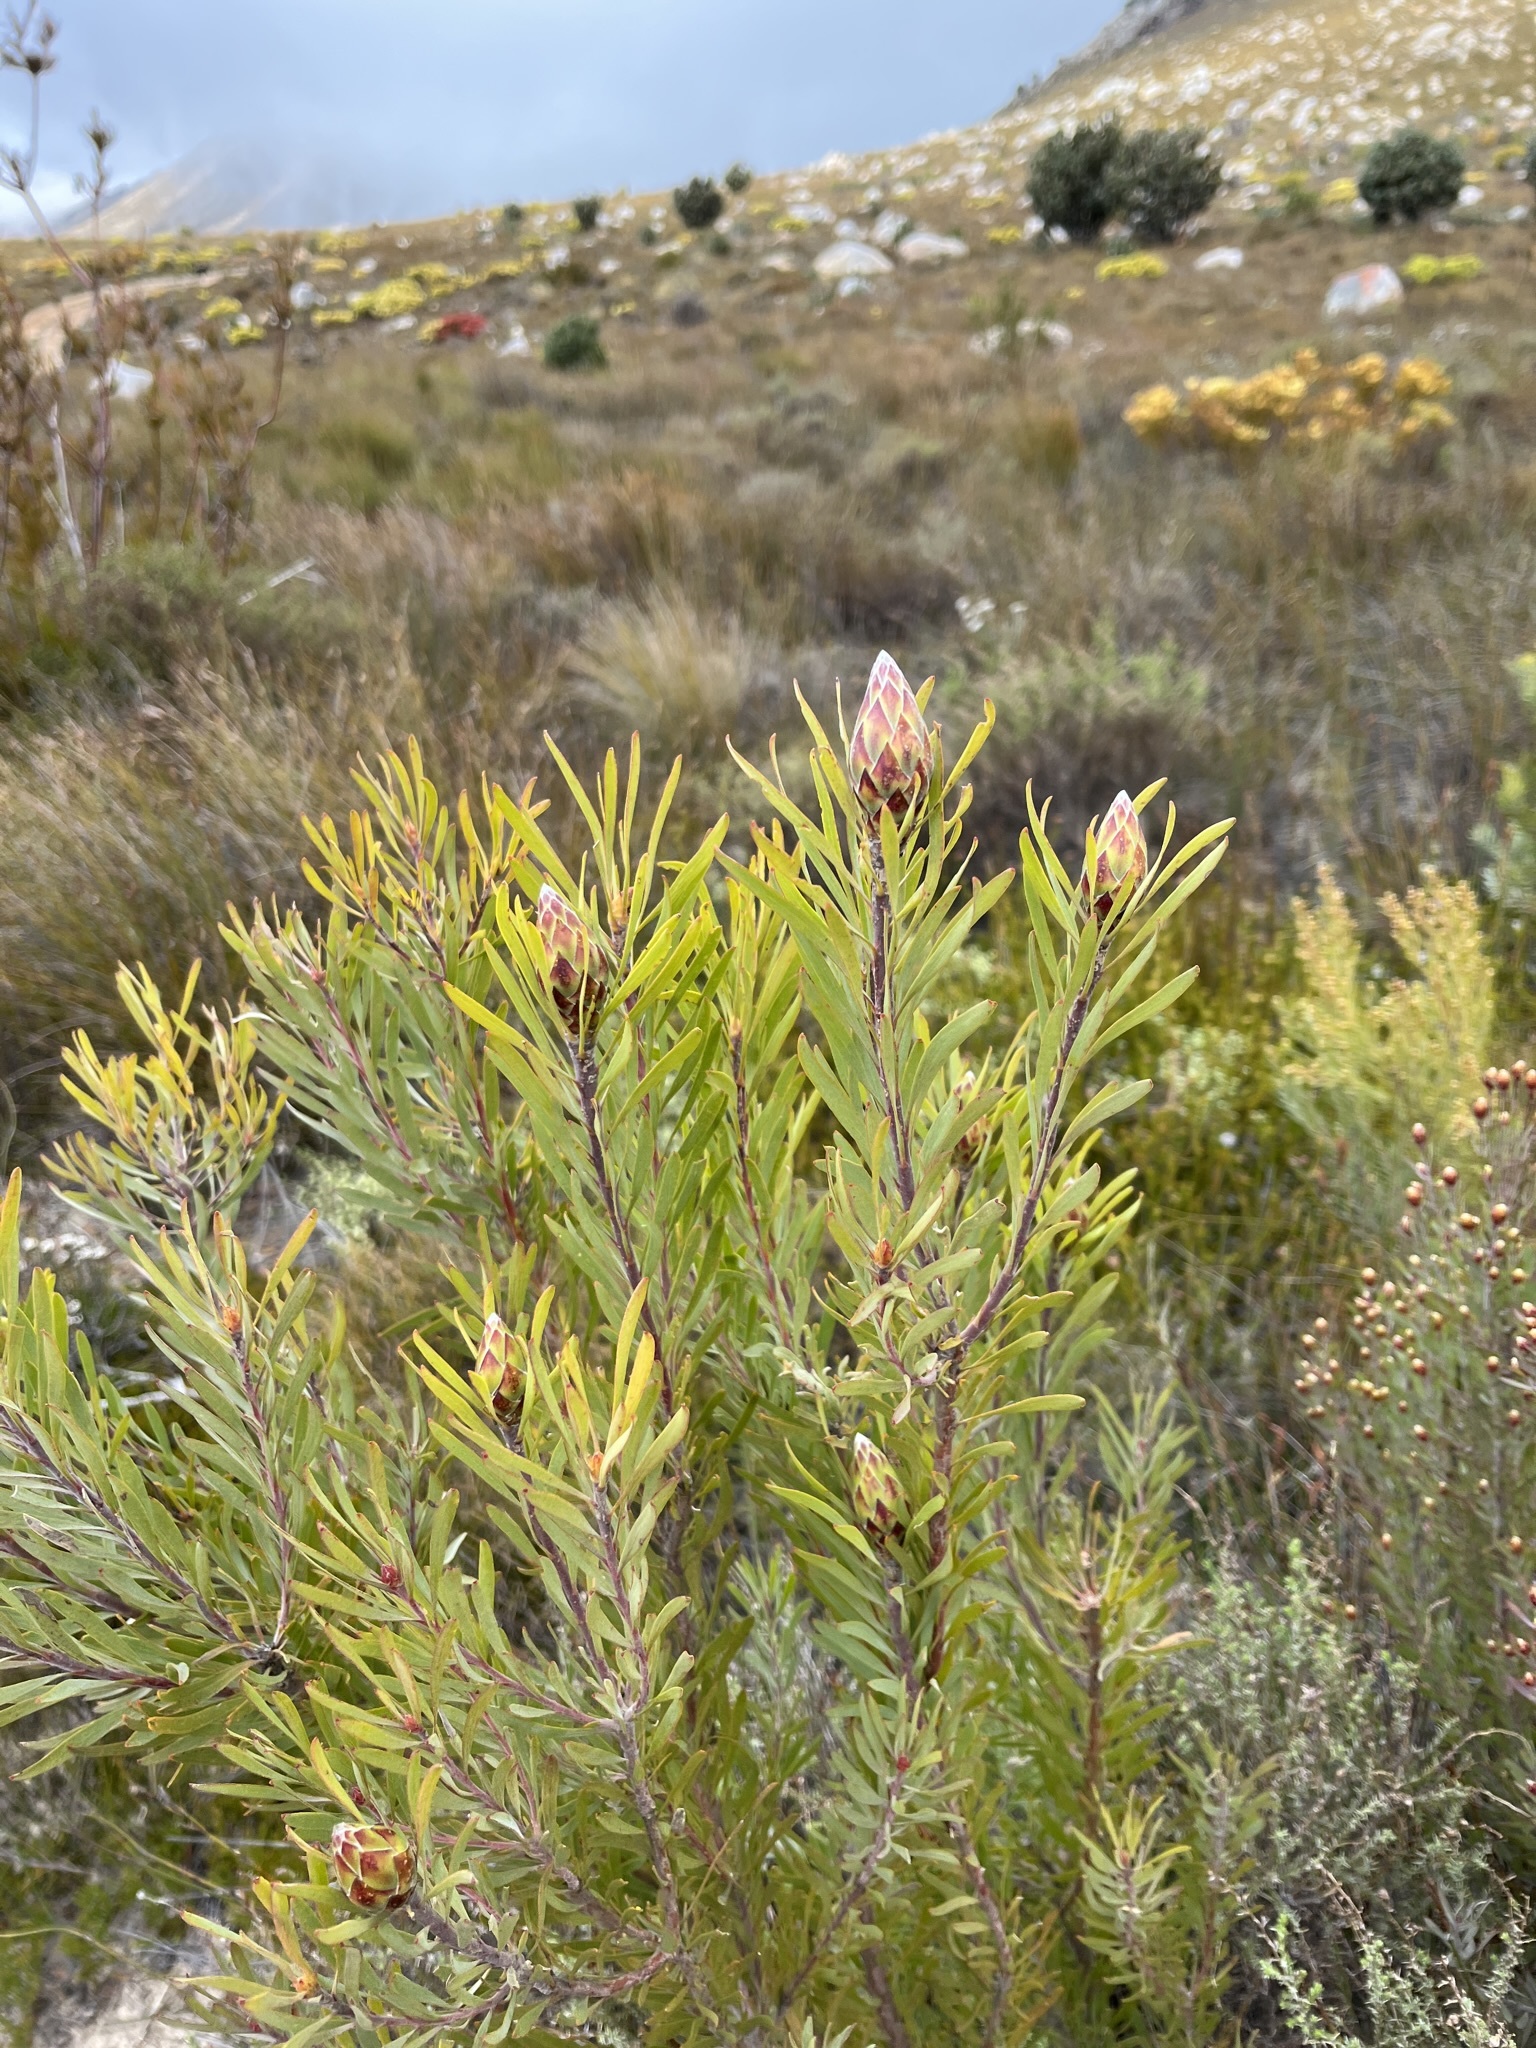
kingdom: Plantae
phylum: Tracheophyta
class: Magnoliopsida
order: Proteales
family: Proteaceae
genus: Leucadendron
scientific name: Leucadendron rubrum
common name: Spinning top
